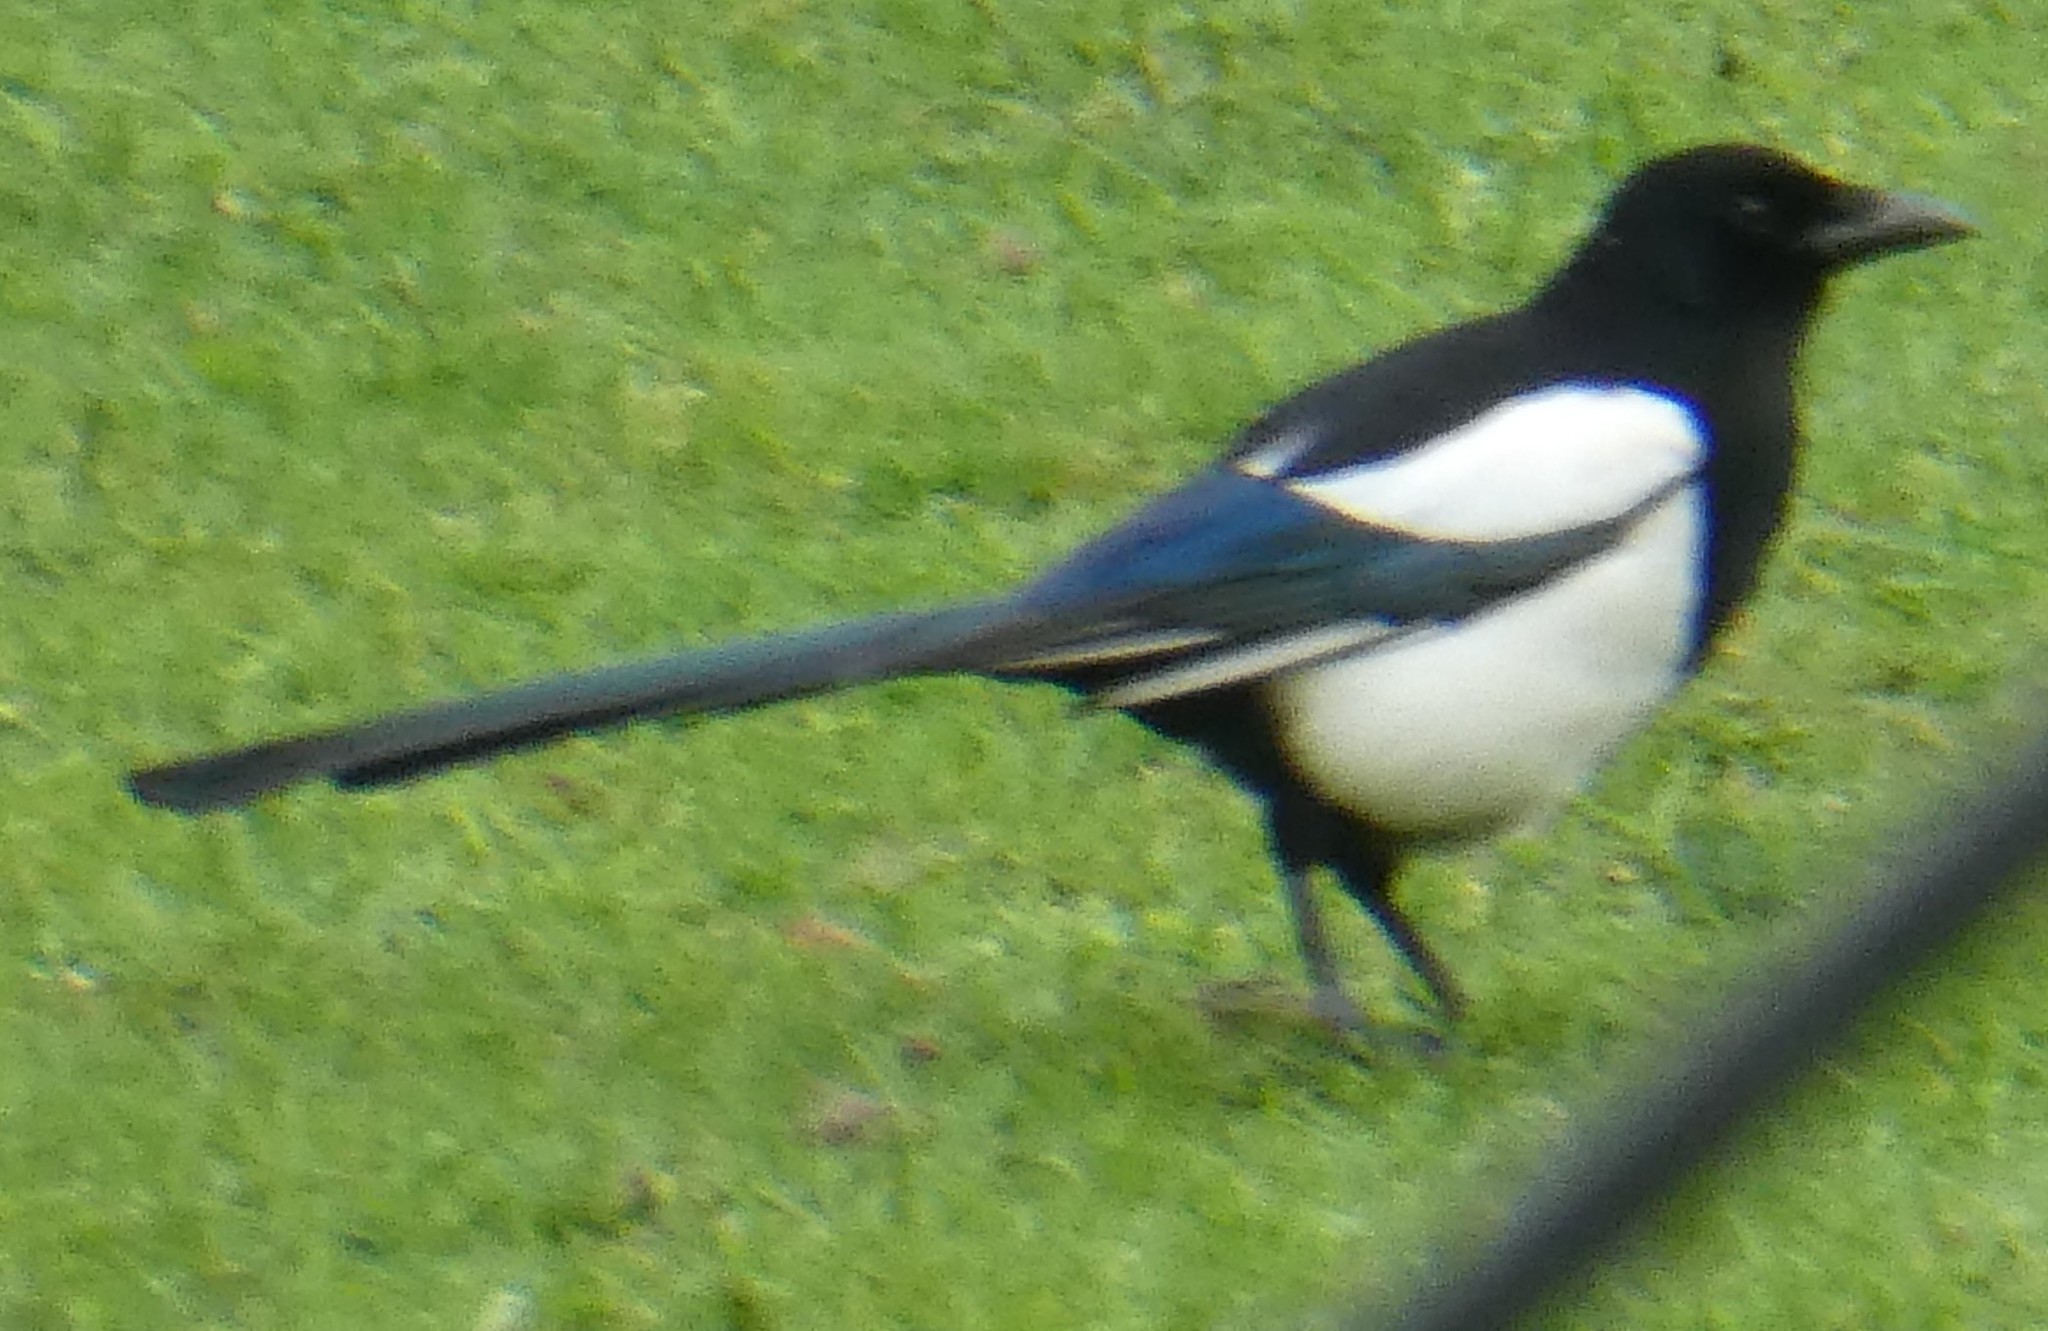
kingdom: Animalia
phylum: Chordata
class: Aves
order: Passeriformes
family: Corvidae
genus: Pica
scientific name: Pica pica
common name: Eurasian magpie
